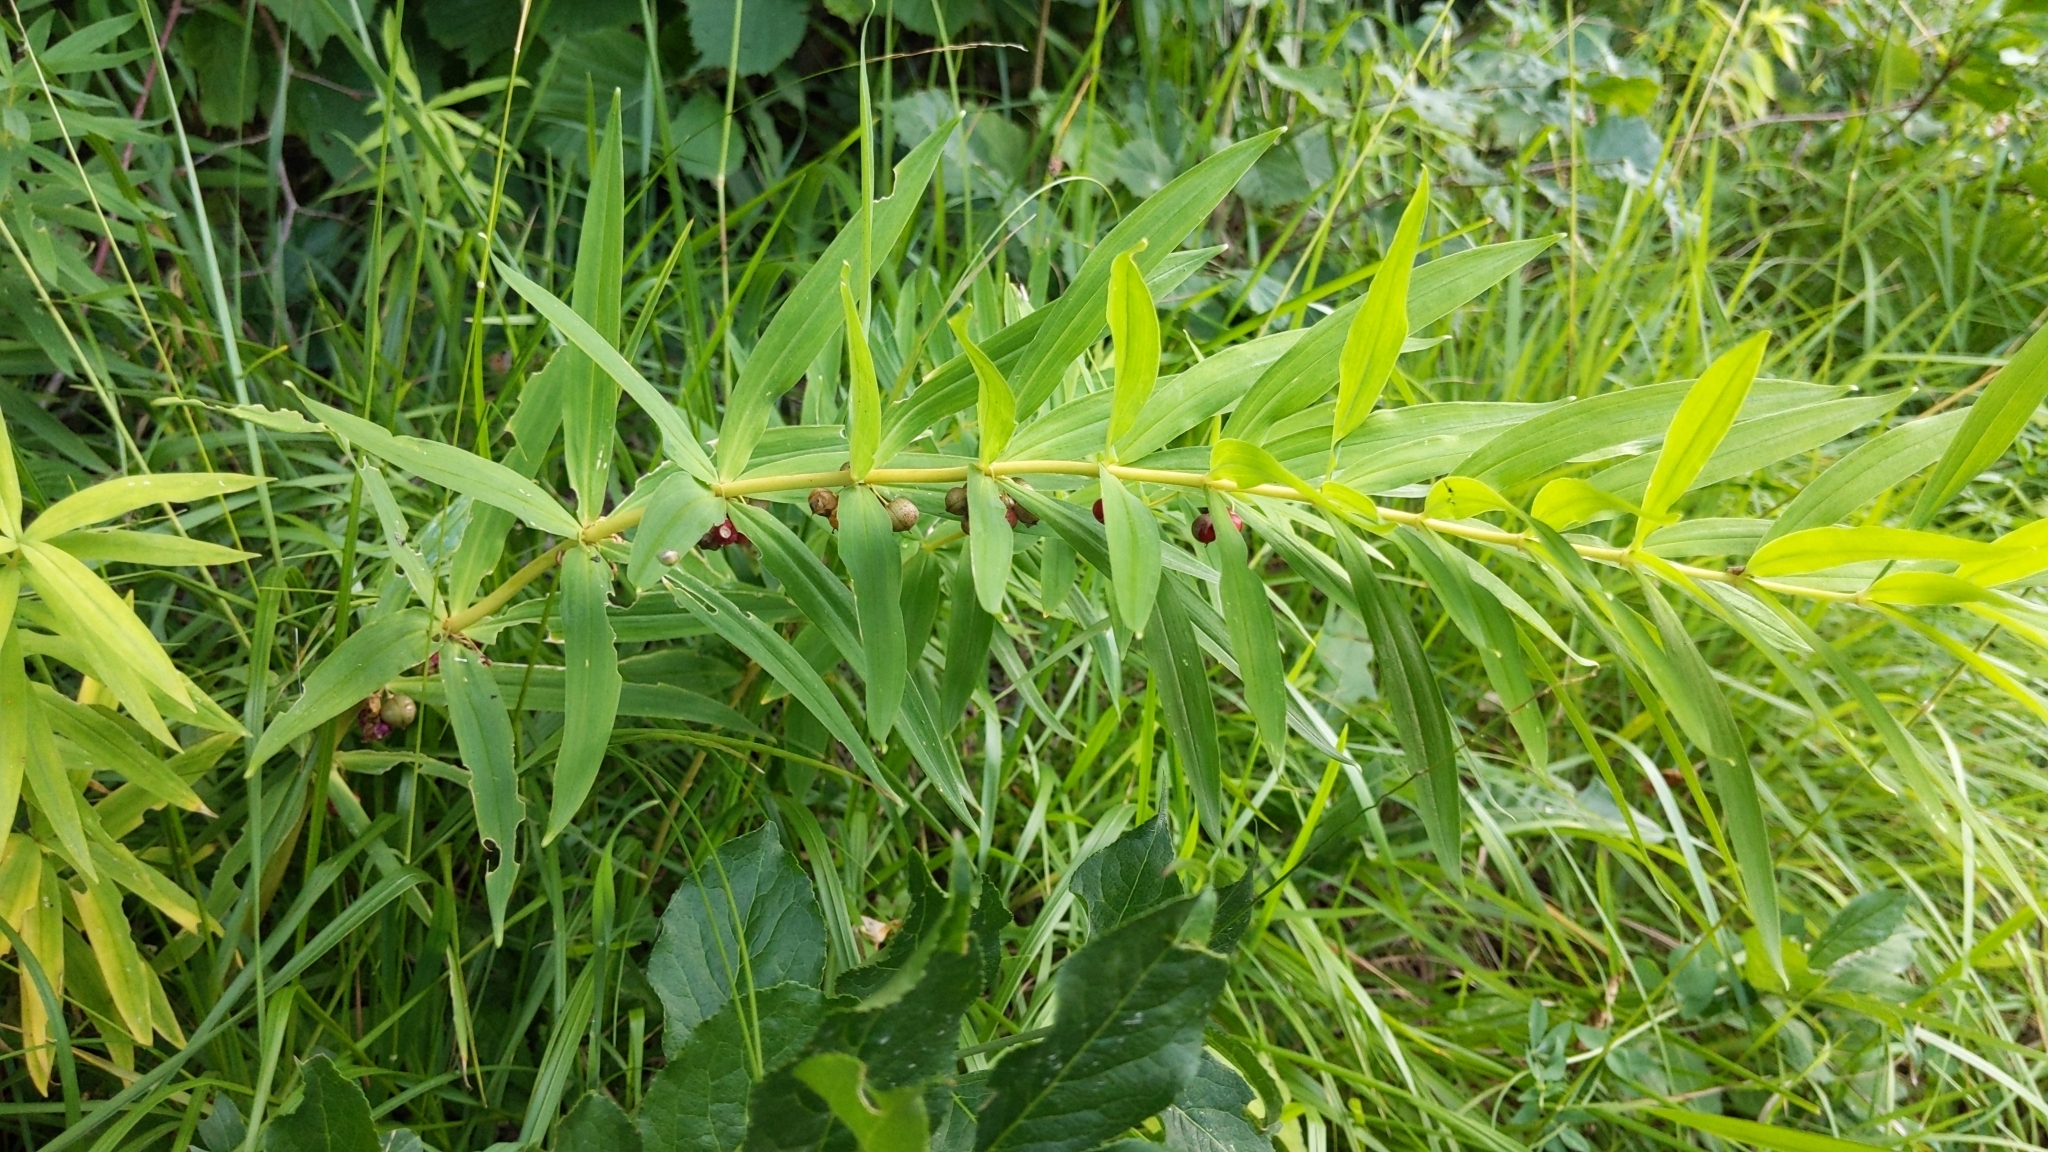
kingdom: Plantae
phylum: Tracheophyta
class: Liliopsida
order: Asparagales
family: Asparagaceae
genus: Polygonatum
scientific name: Polygonatum verticillatum
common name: Whorled solomon's-seal
